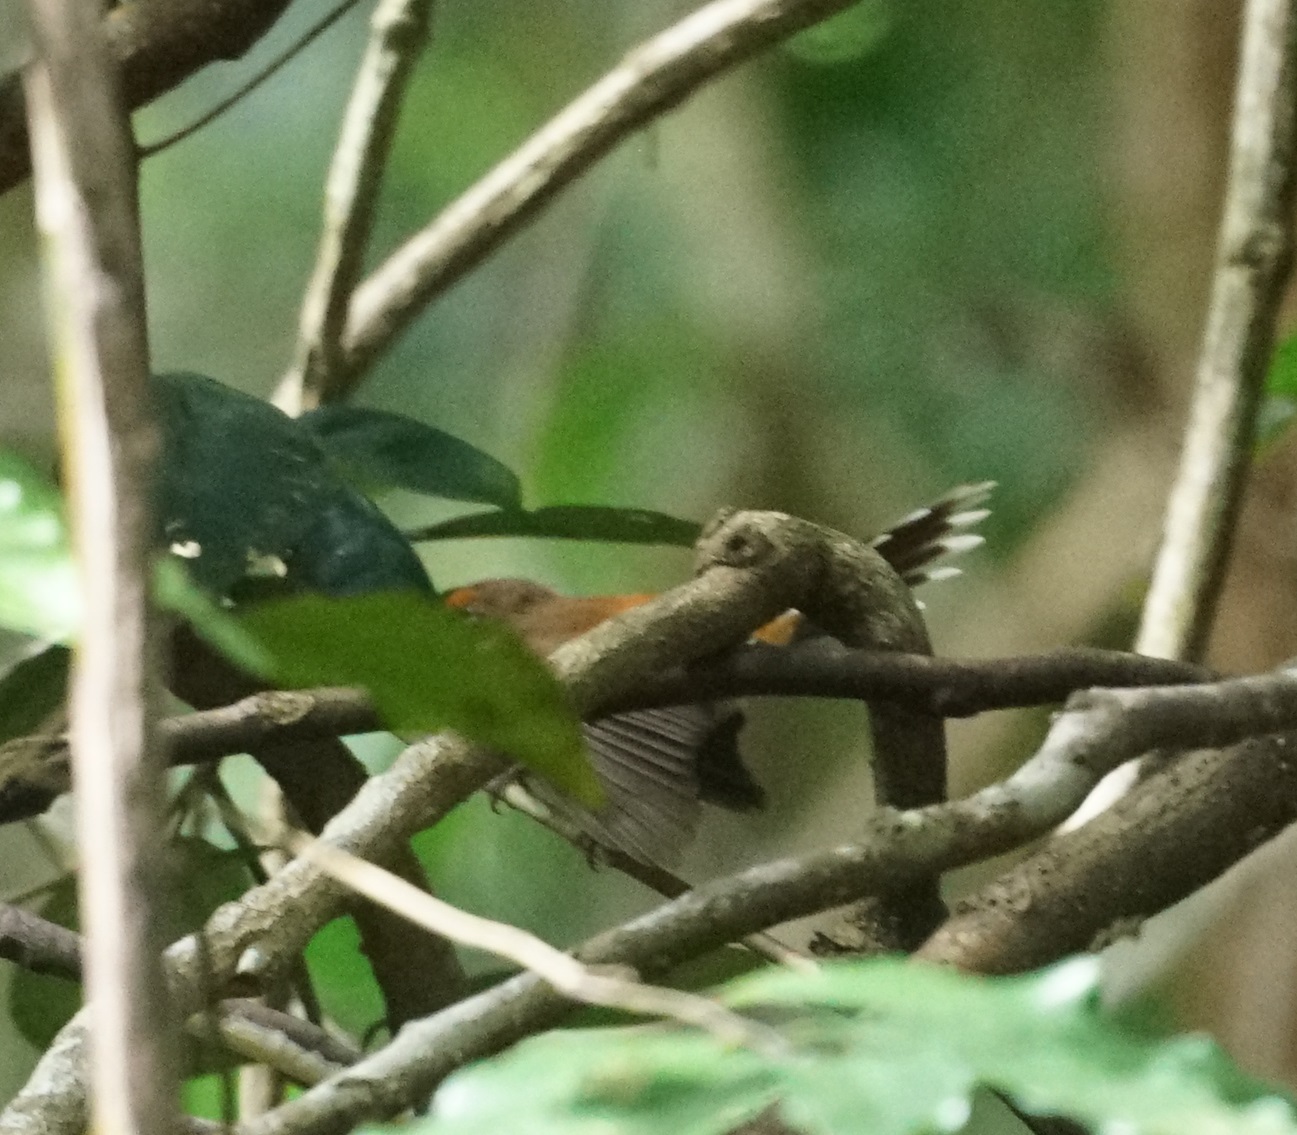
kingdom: Animalia
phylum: Chordata
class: Aves
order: Passeriformes
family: Rhipiduridae
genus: Rhipidura
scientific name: Rhipidura rufifrons
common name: Rufous fantail
